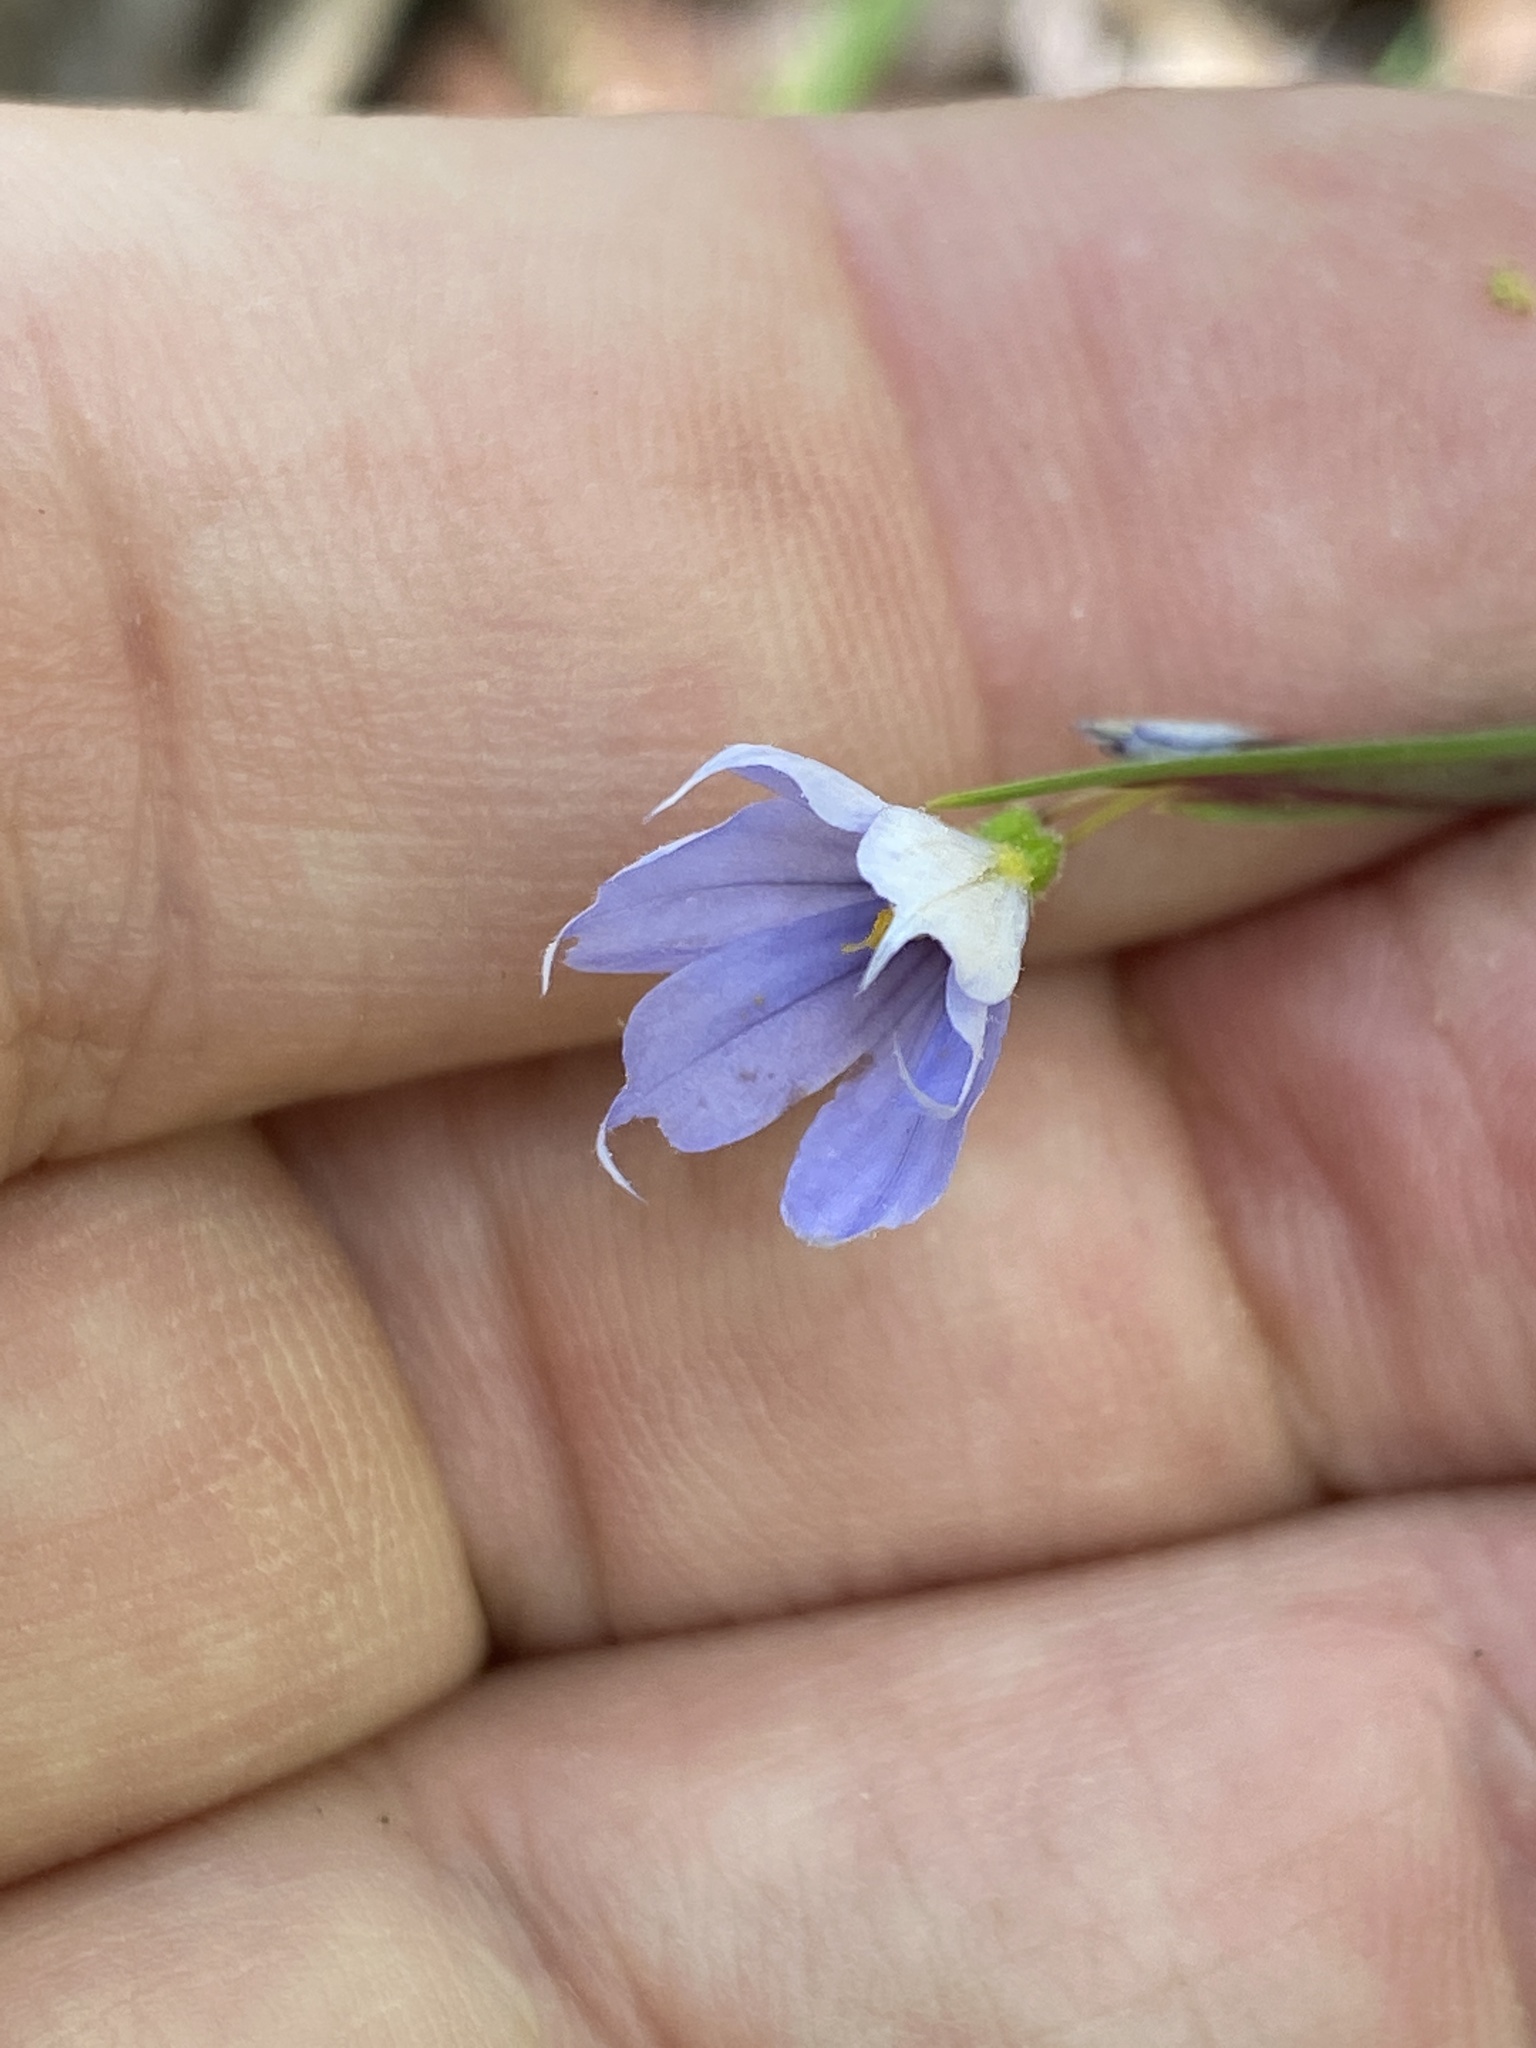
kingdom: Plantae
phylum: Tracheophyta
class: Liliopsida
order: Asparagales
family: Iridaceae
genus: Sisyrinchium
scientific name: Sisyrinchium angustifolium
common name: Narrow-leaf blue-eyed-grass
